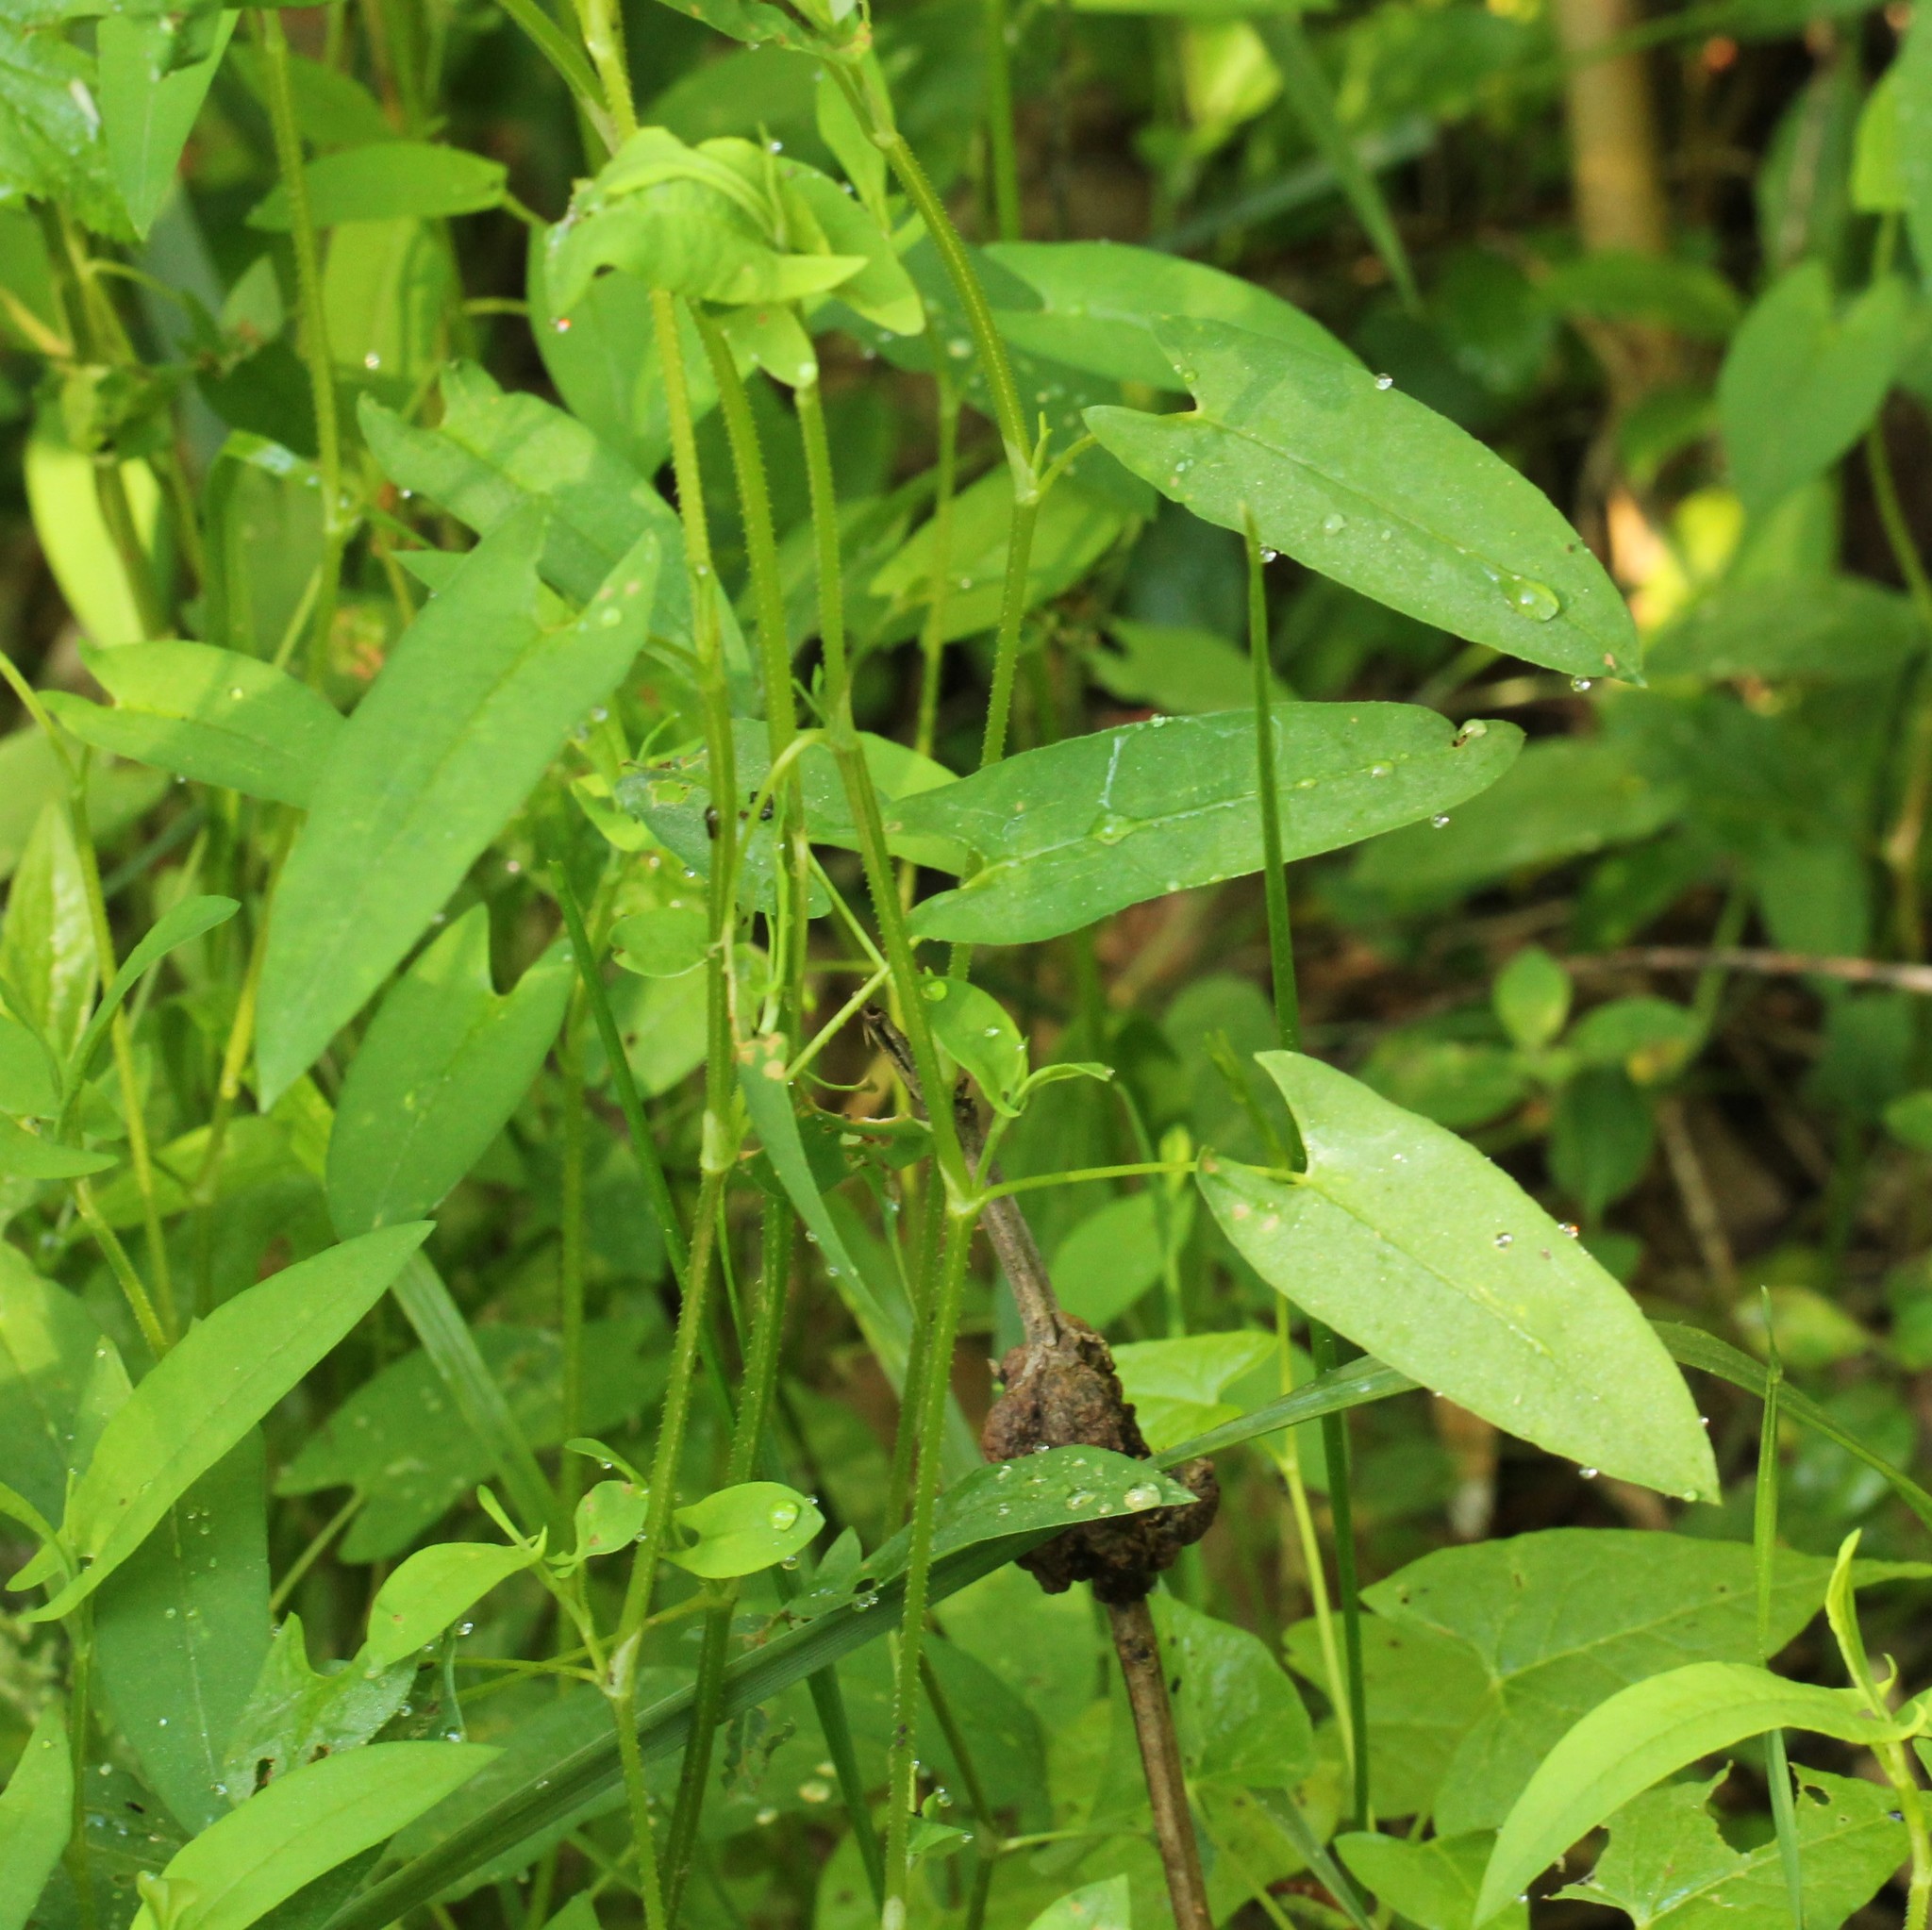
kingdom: Plantae
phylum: Tracheophyta
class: Magnoliopsida
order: Caryophyllales
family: Polygonaceae
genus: Persicaria
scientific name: Persicaria sagittata
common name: American tearthumb
